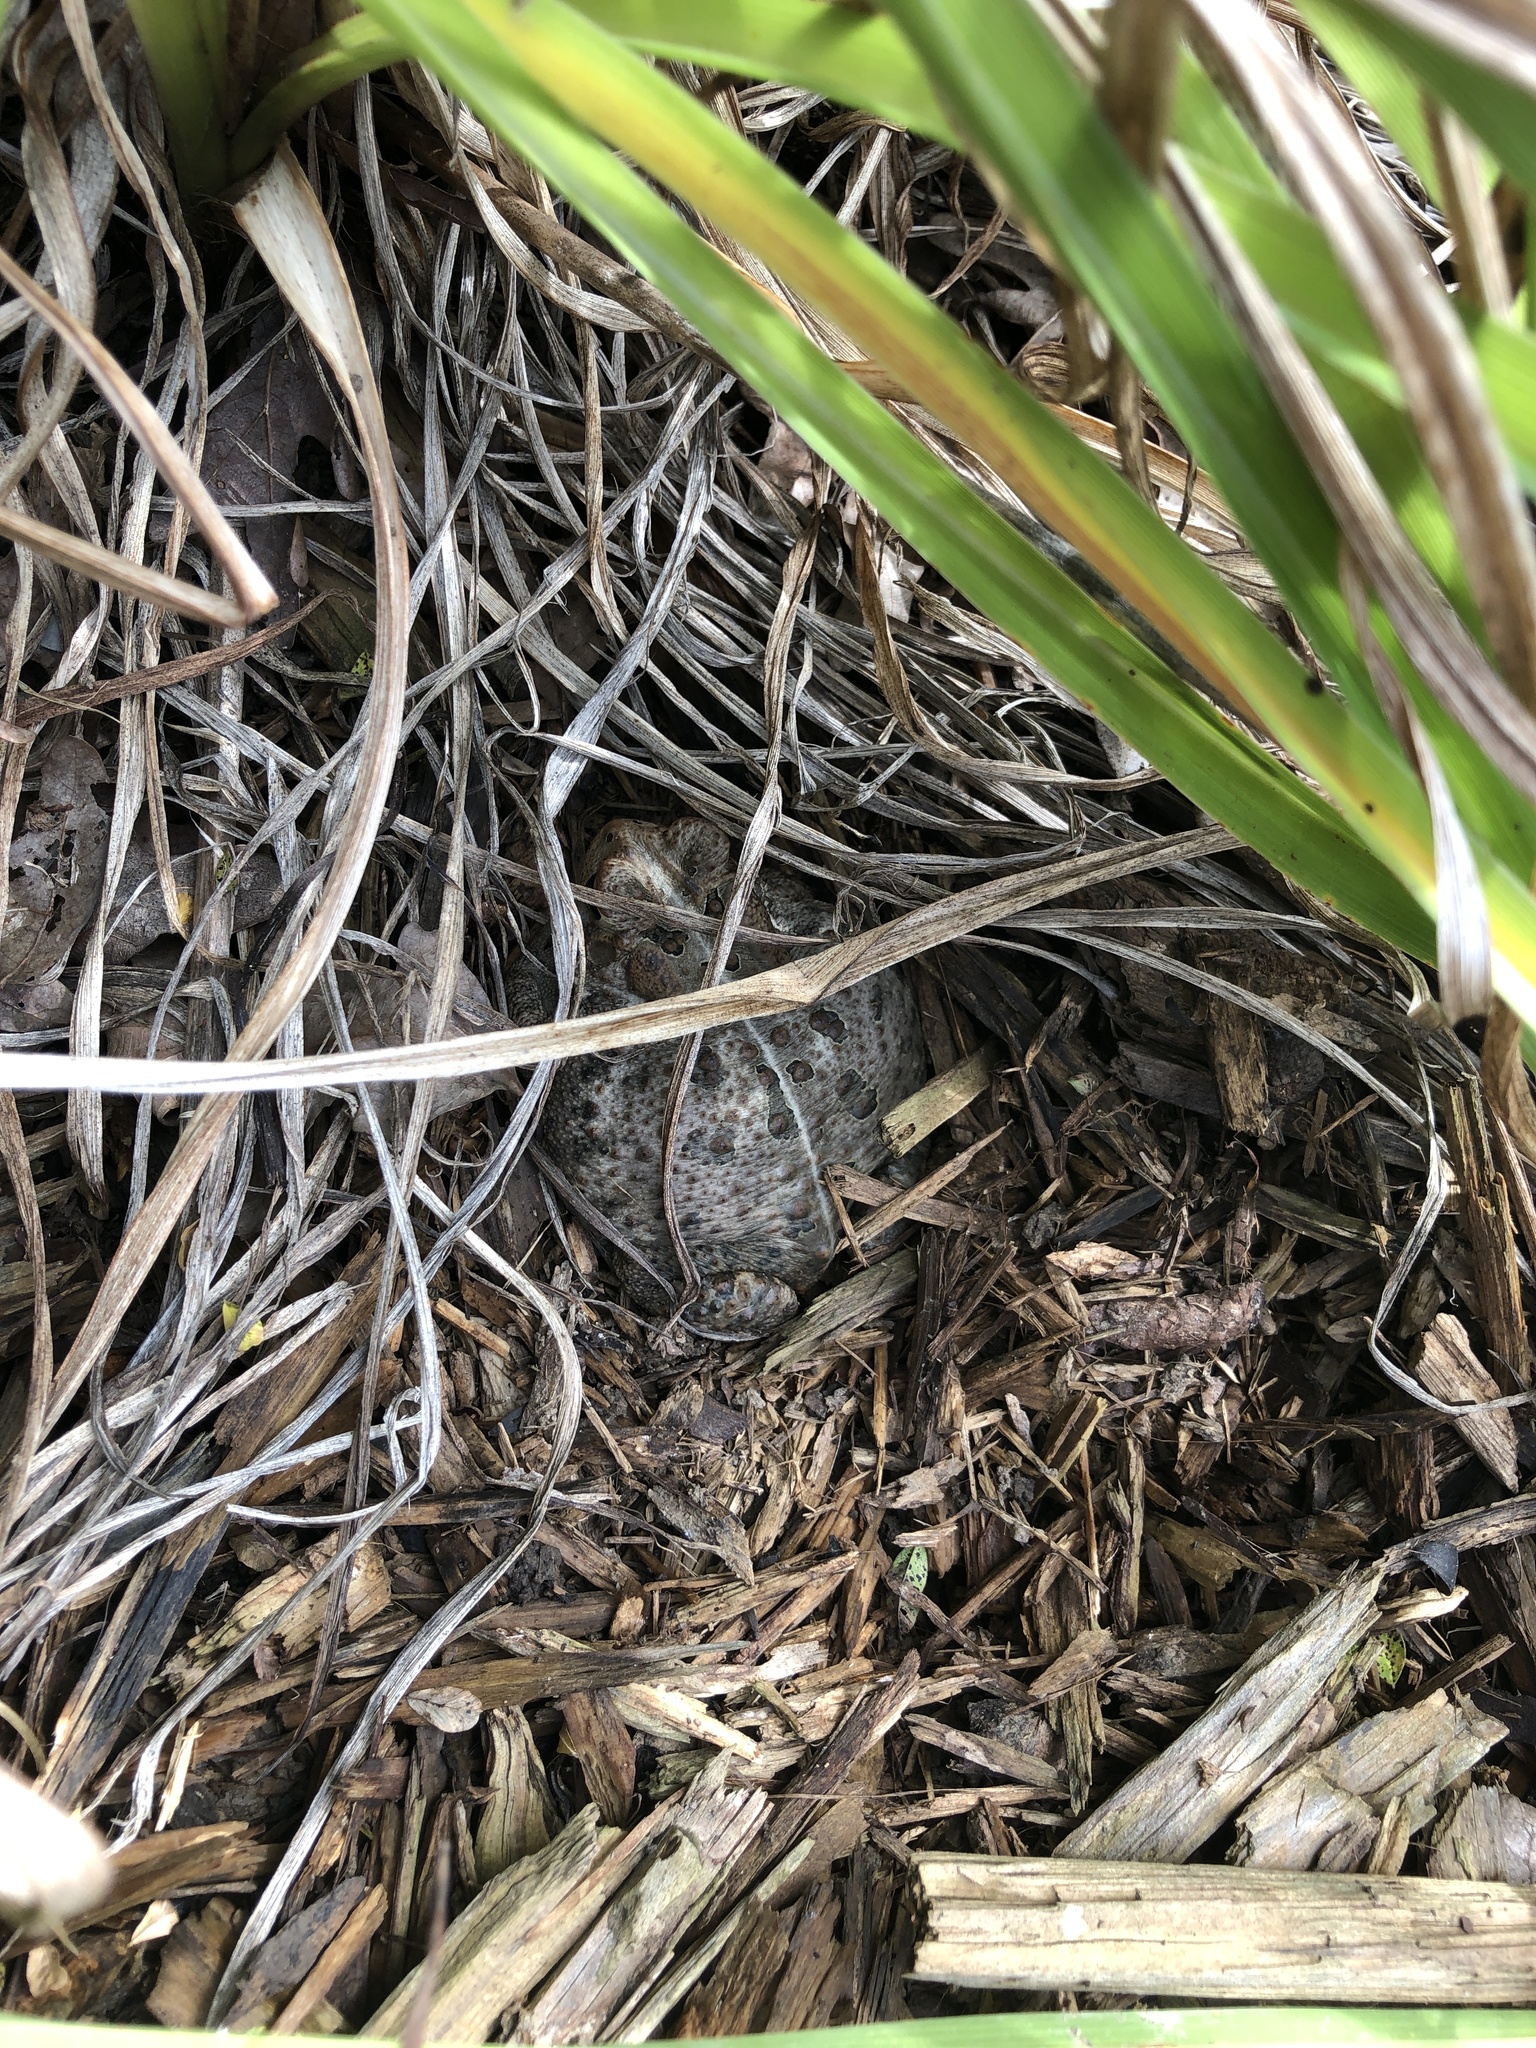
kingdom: Animalia
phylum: Chordata
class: Amphibia
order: Anura
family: Bufonidae
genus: Anaxyrus
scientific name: Anaxyrus americanus
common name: American toad
